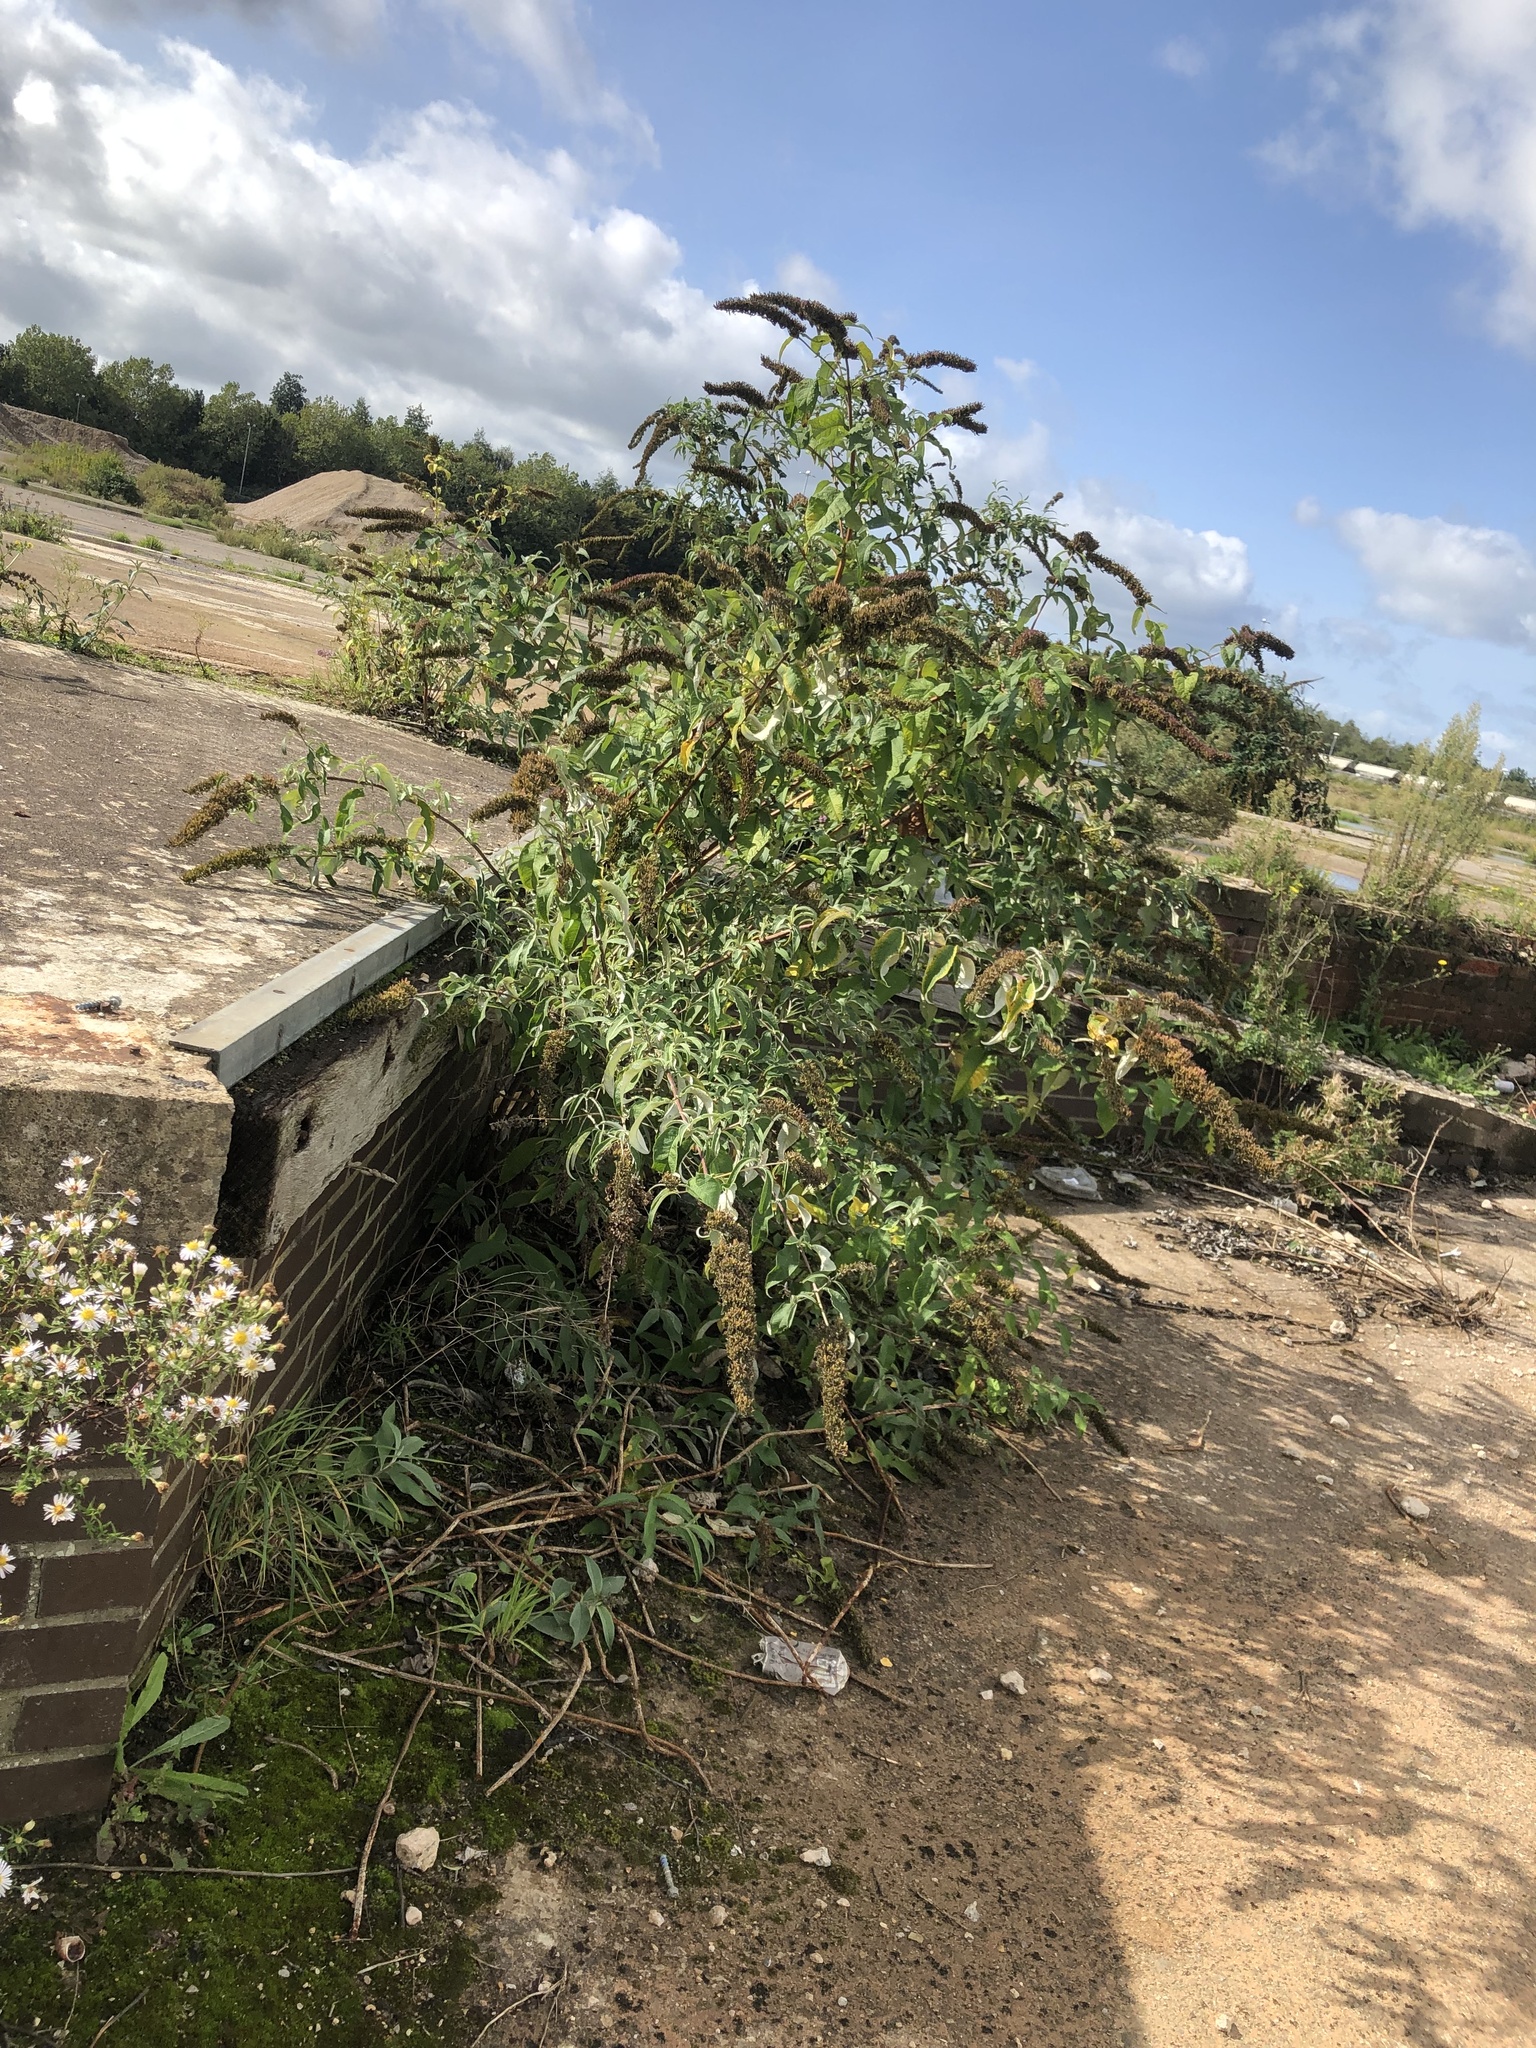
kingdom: Plantae
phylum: Tracheophyta
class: Magnoliopsida
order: Lamiales
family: Scrophulariaceae
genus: Buddleja
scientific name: Buddleja davidii
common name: Butterfly-bush
